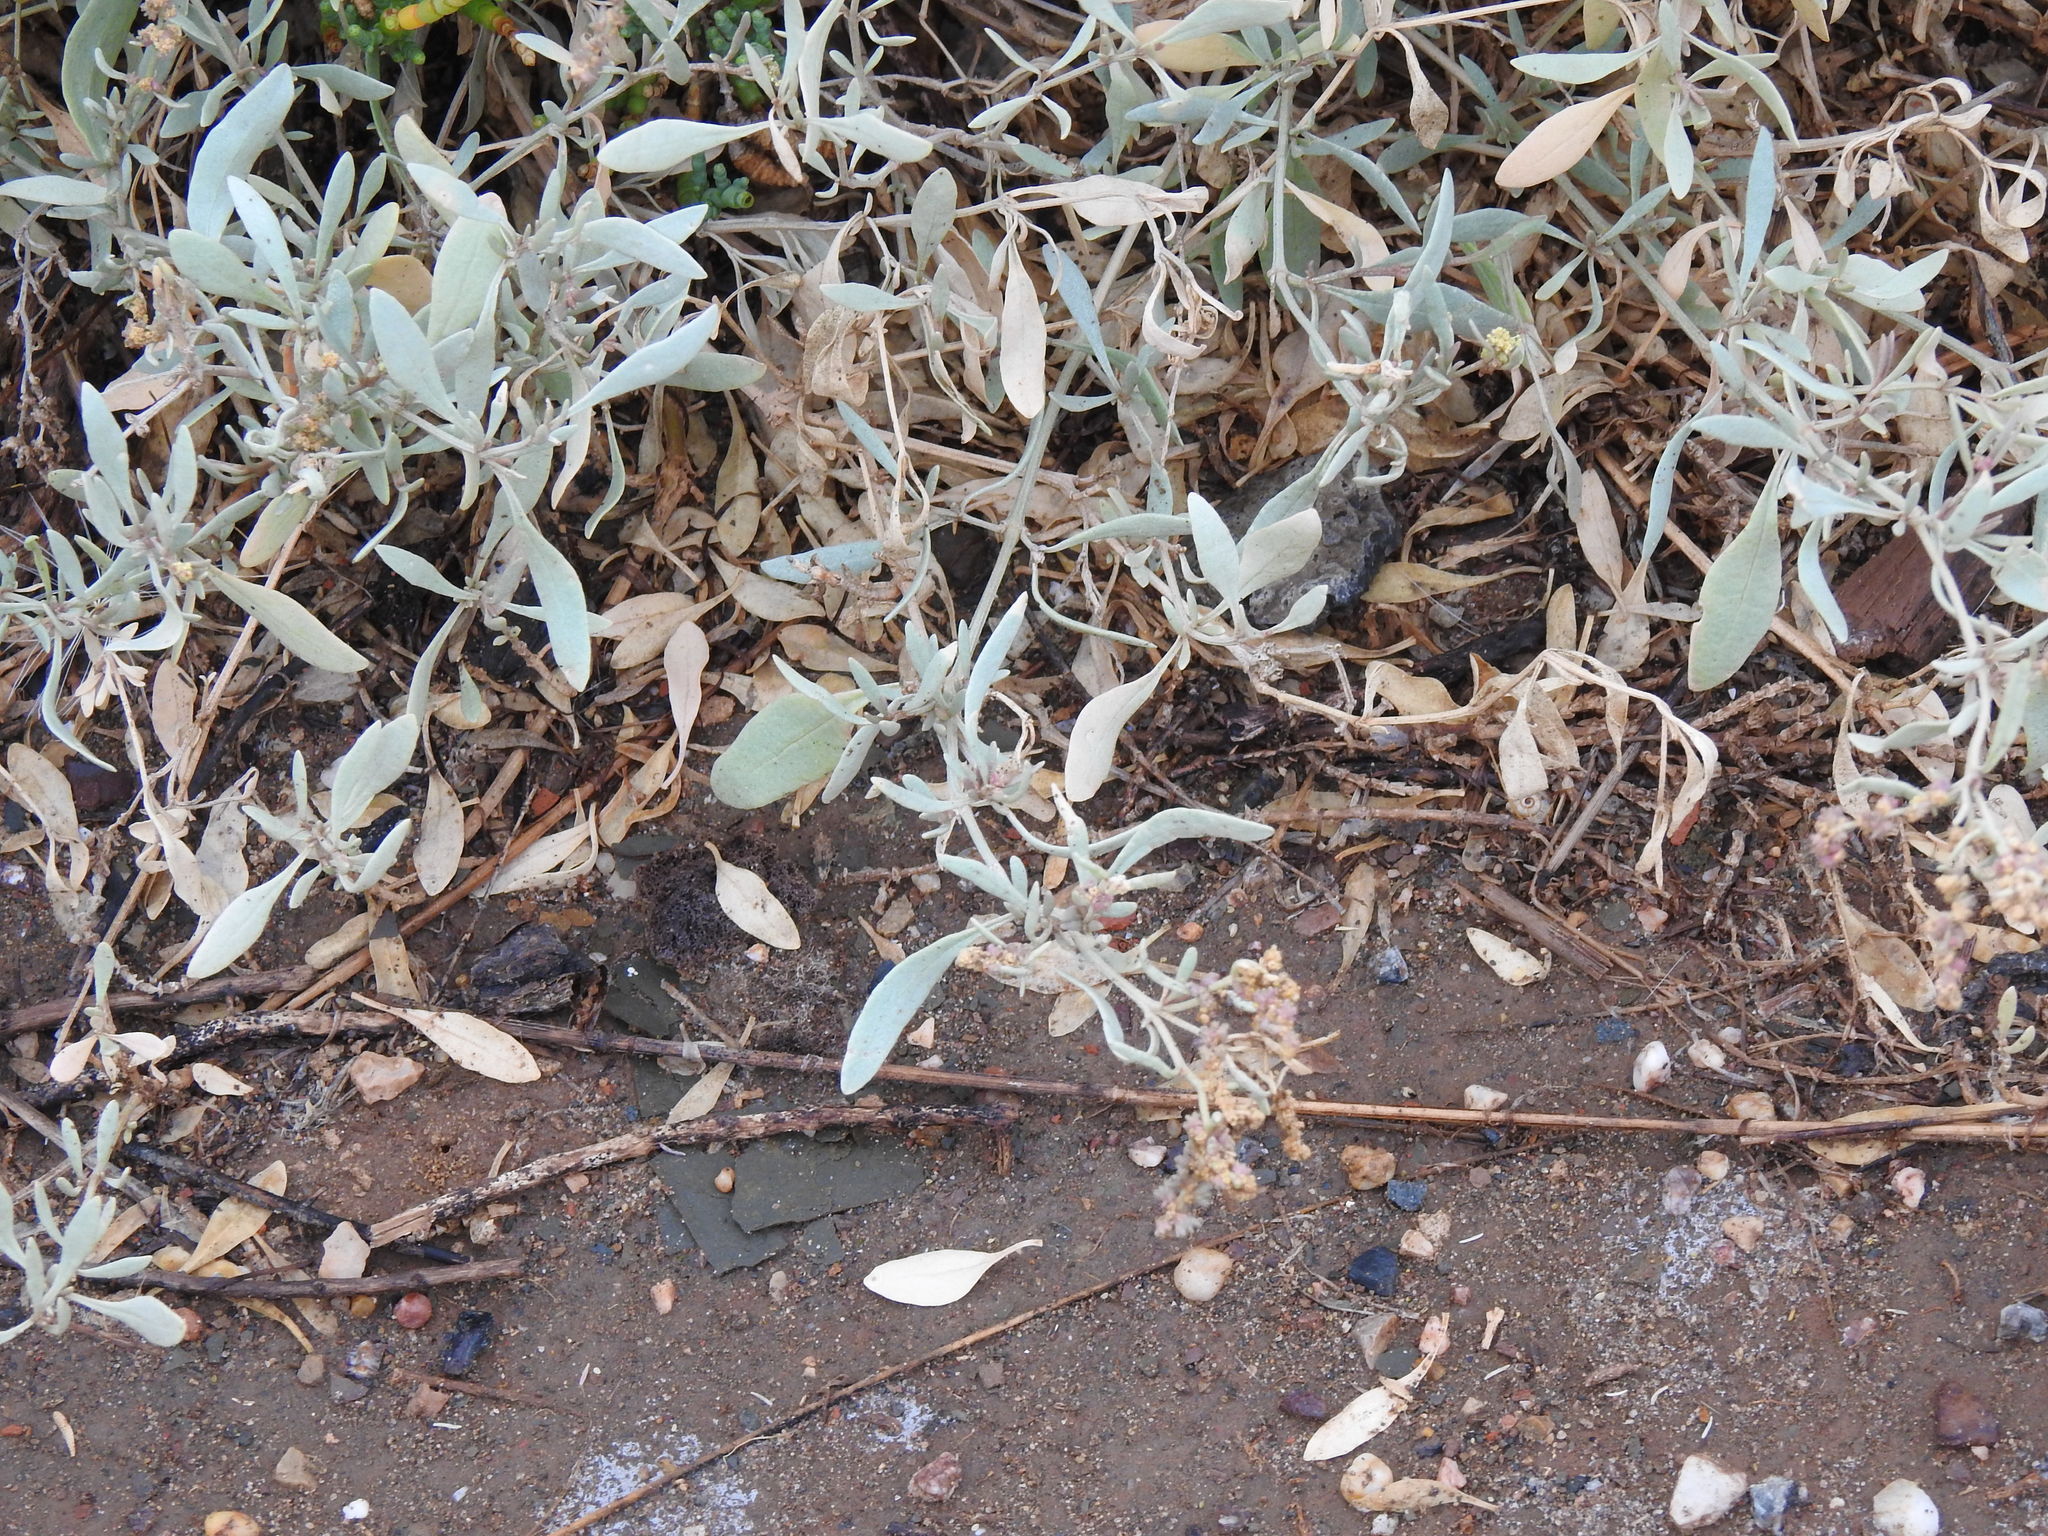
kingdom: Plantae
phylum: Tracheophyta
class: Magnoliopsida
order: Caryophyllales
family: Amaranthaceae
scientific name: Amaranthaceae
